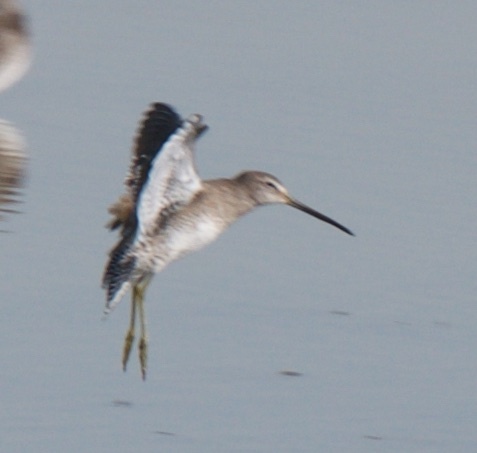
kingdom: Animalia
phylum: Chordata
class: Aves
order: Charadriiformes
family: Scolopacidae
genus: Limnodromus
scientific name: Limnodromus scolopaceus
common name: Long-billed dowitcher
